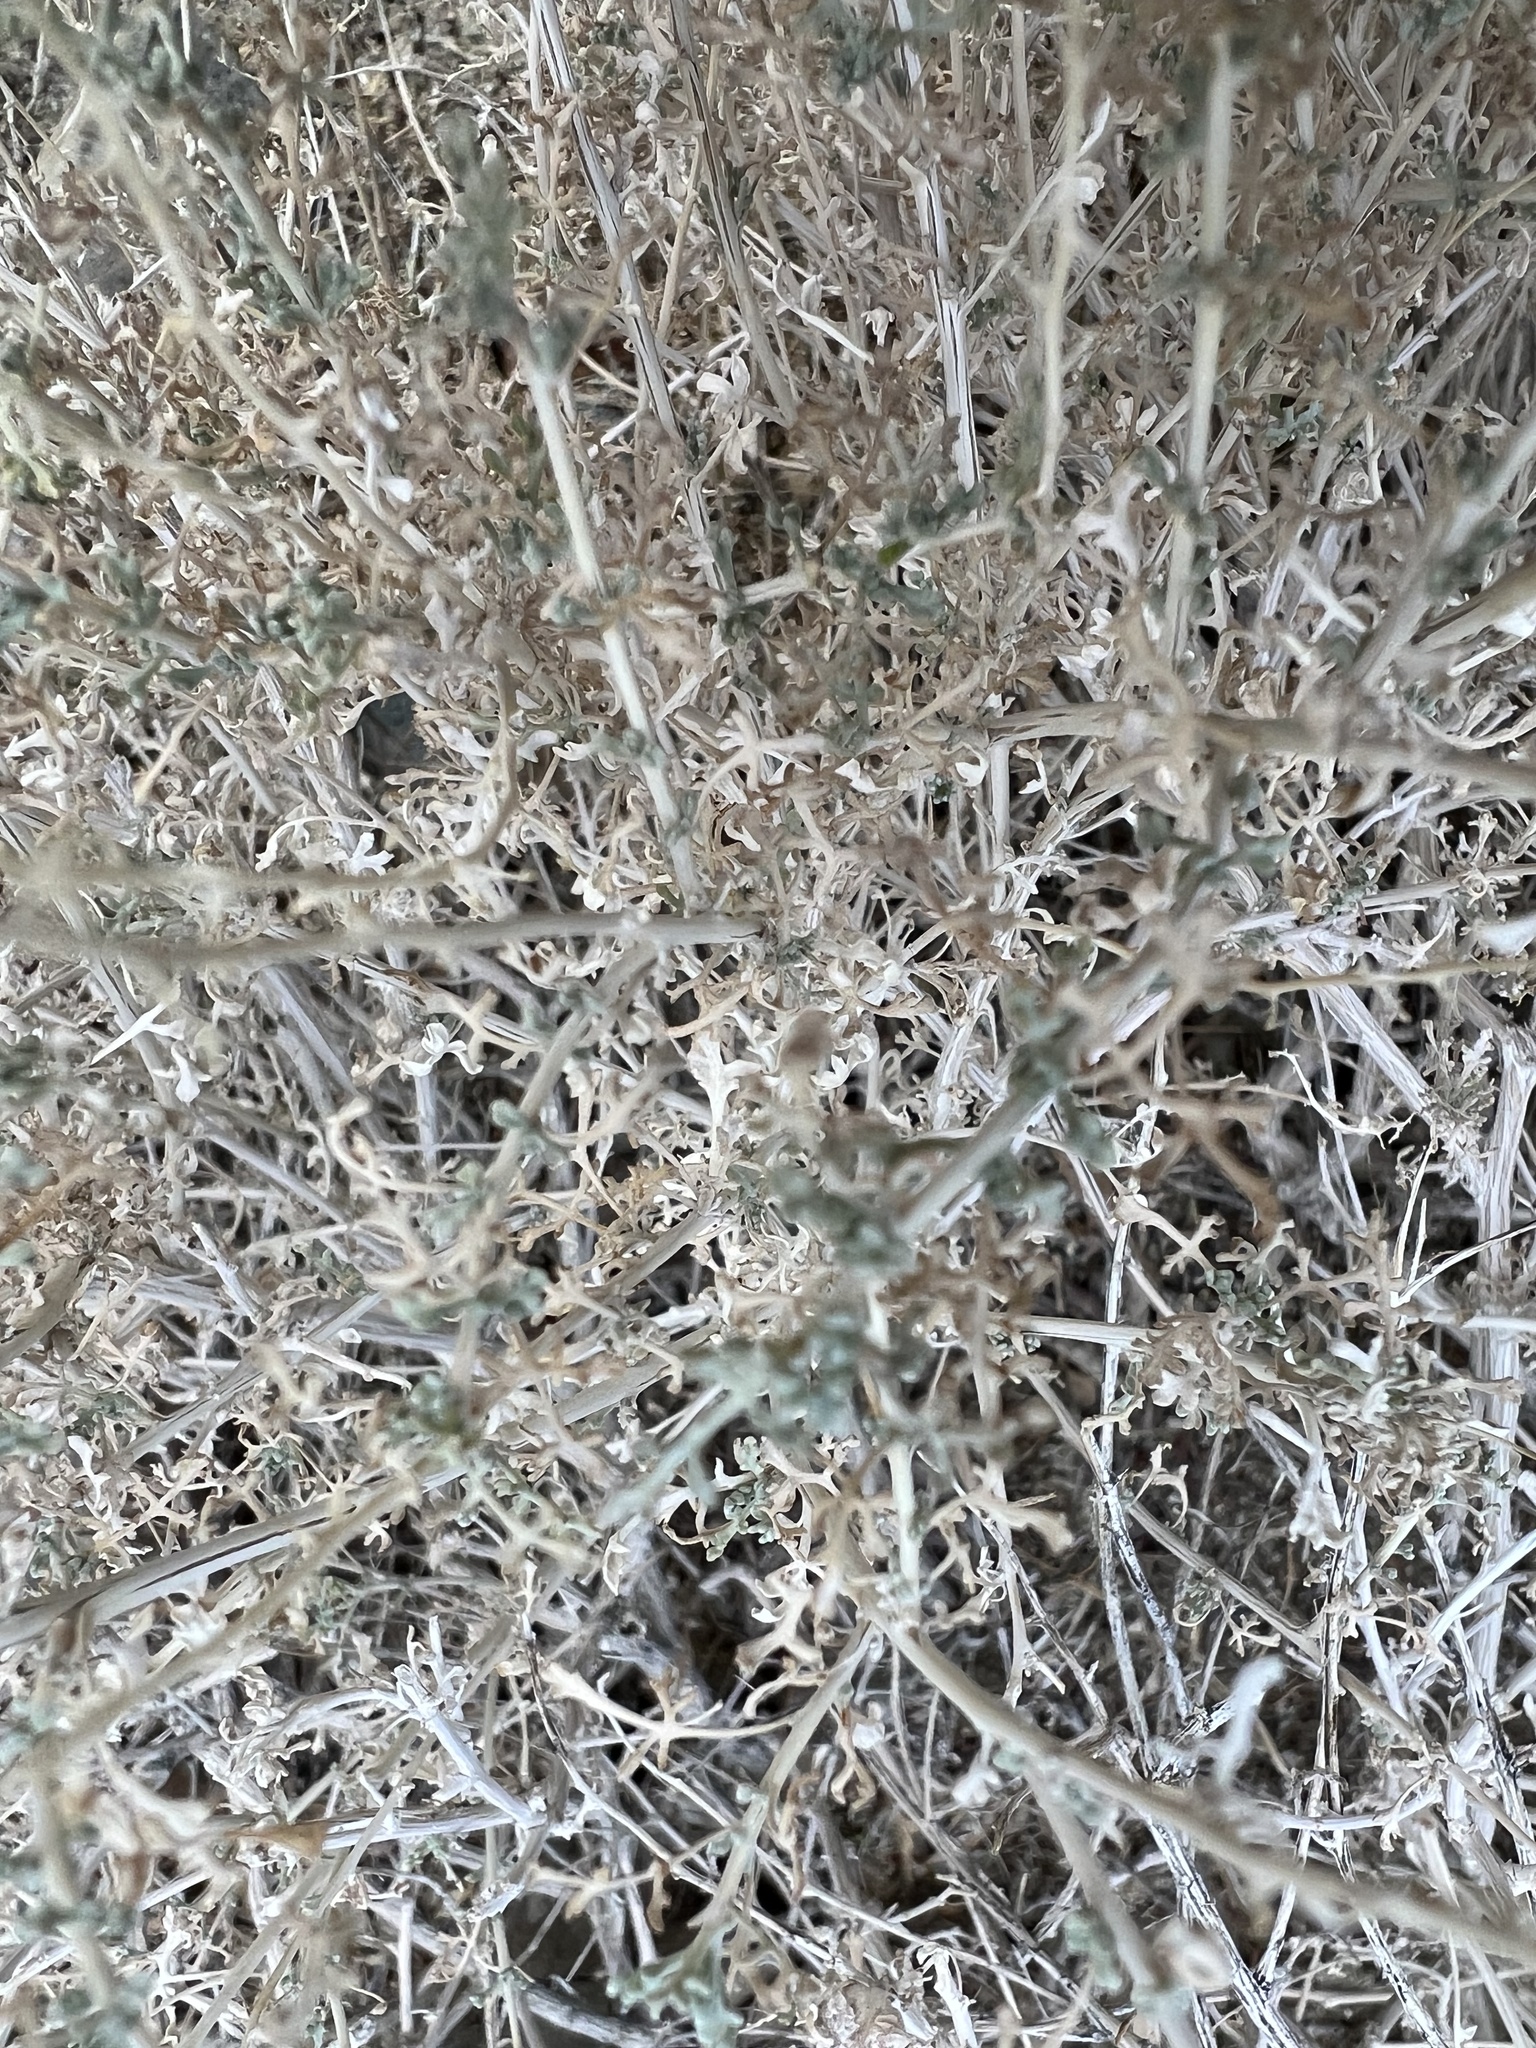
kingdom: Plantae
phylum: Tracheophyta
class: Magnoliopsida
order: Asterales
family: Asteraceae
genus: Ambrosia
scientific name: Ambrosia dumosa
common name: Bur-sage
